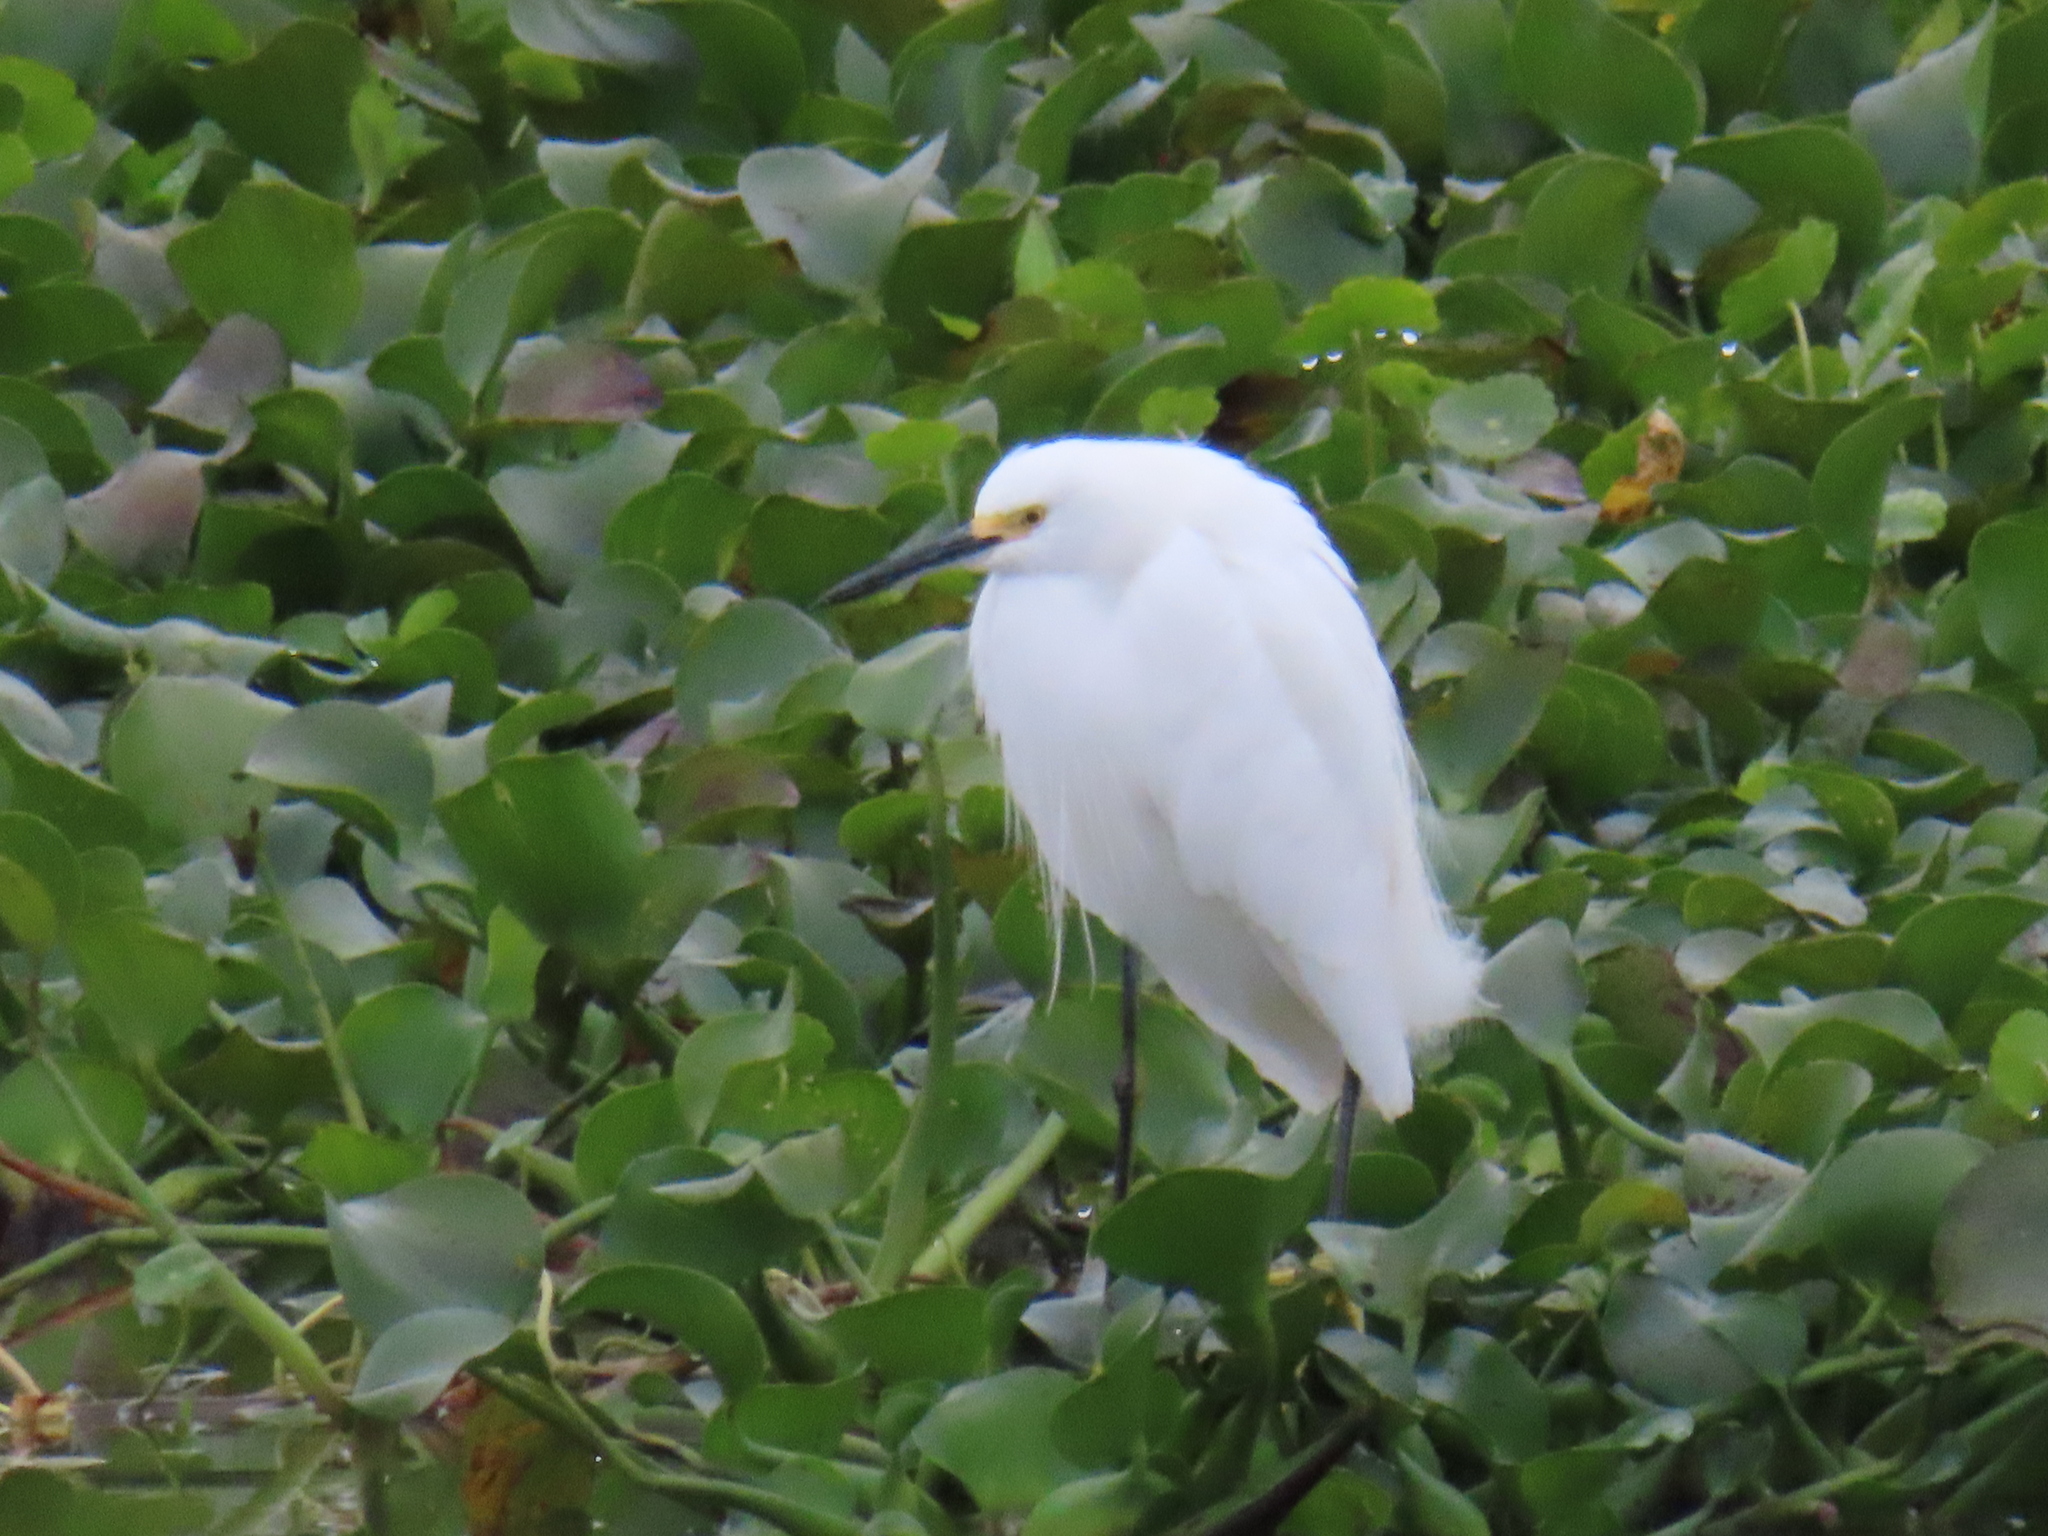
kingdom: Animalia
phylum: Chordata
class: Aves
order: Pelecaniformes
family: Ardeidae
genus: Egretta
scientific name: Egretta thula
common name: Snowy egret
